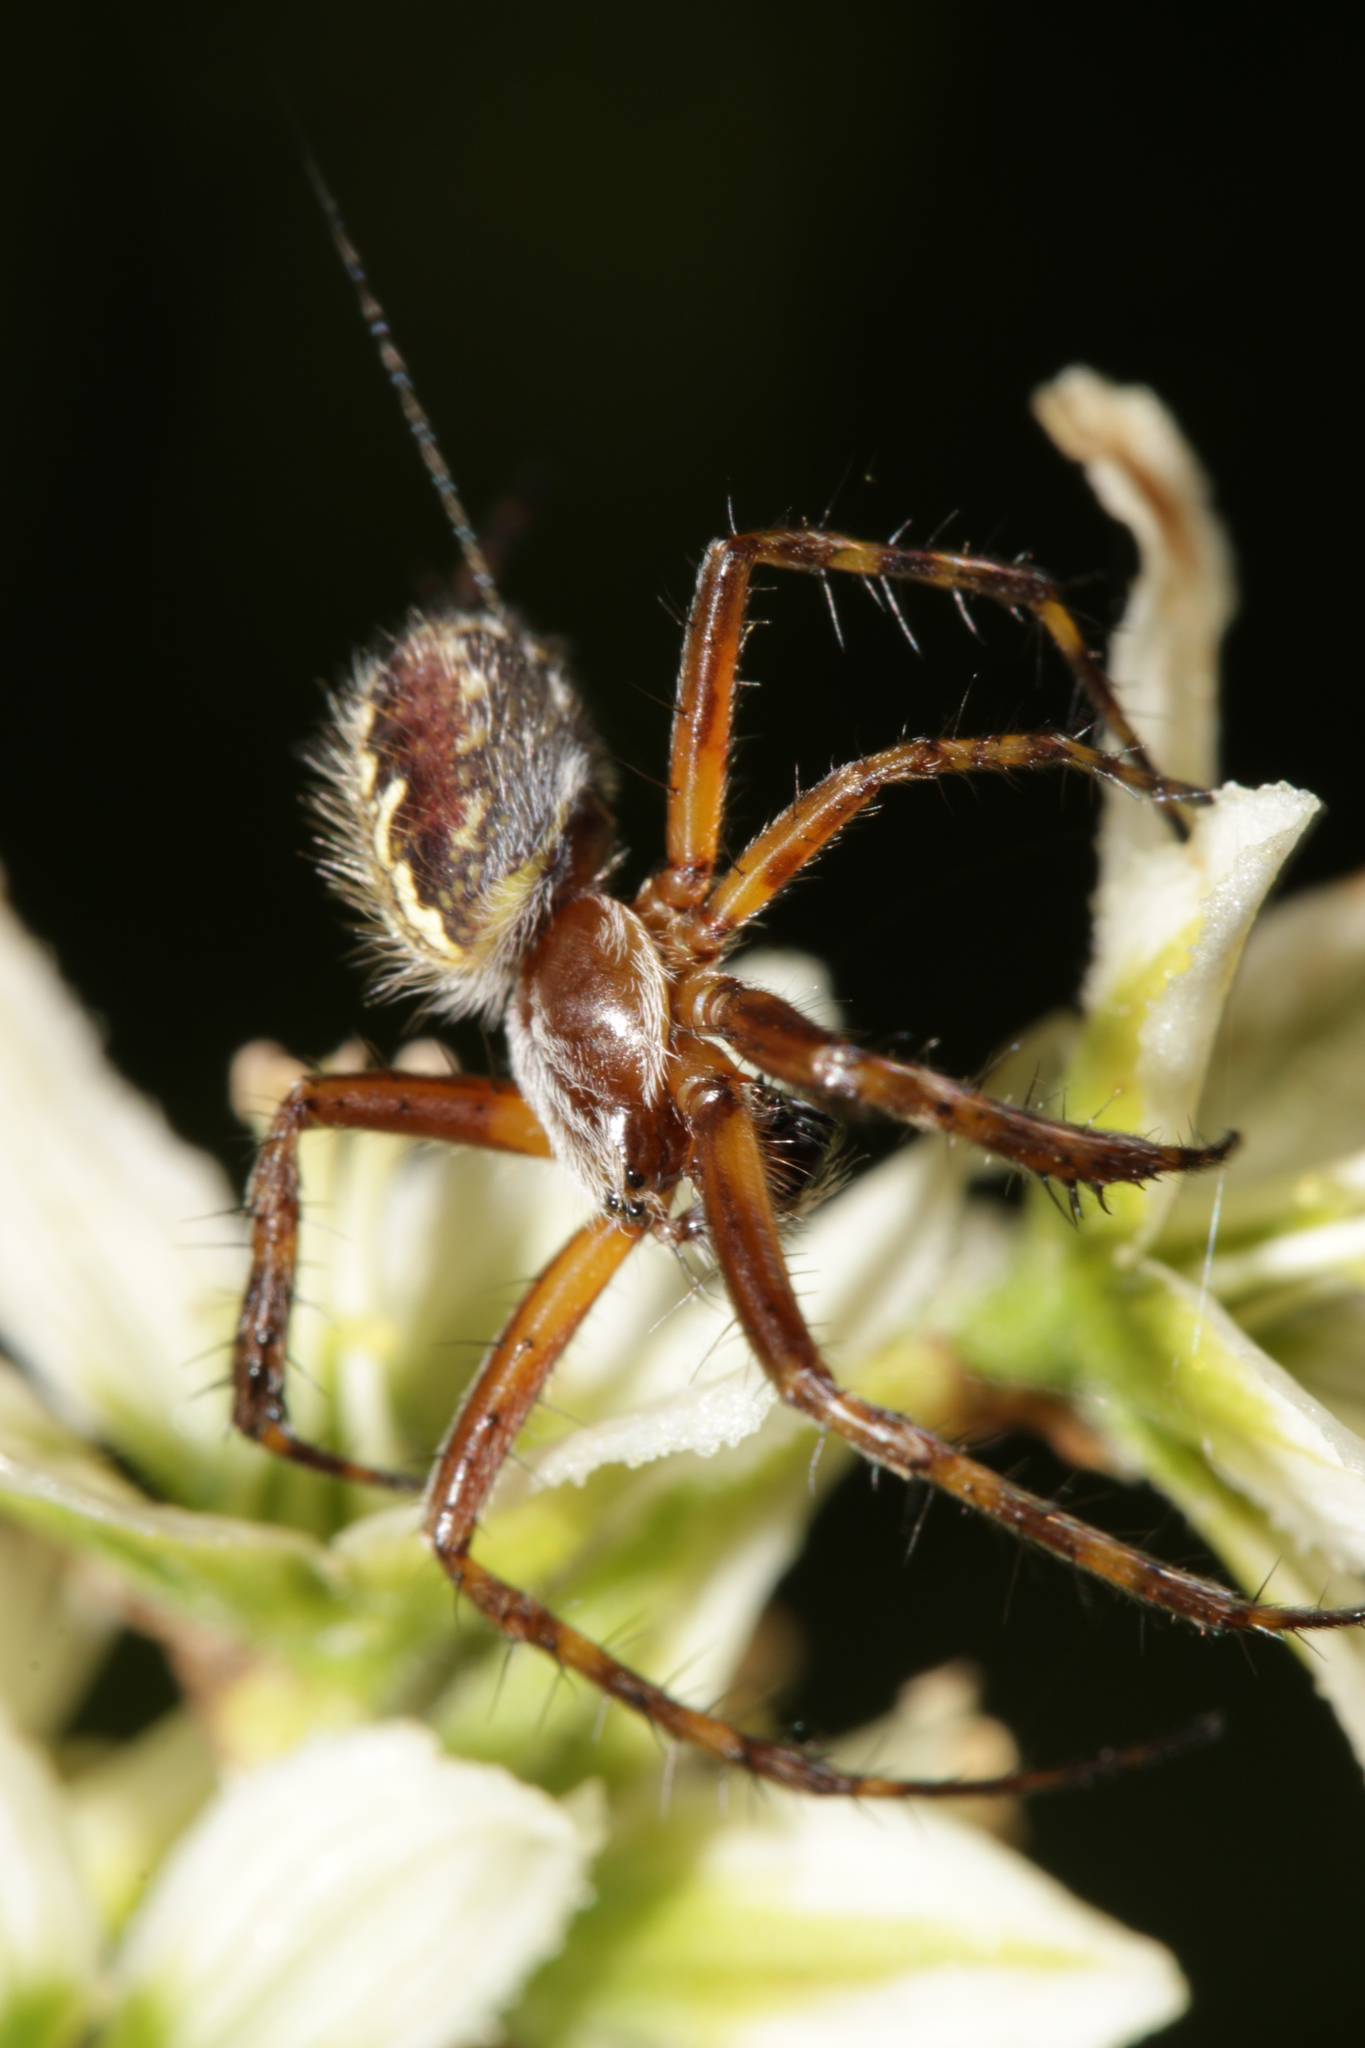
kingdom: Animalia
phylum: Arthropoda
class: Arachnida
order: Araneae
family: Araneidae
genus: Aculepeira
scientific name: Aculepeira ceropegia
